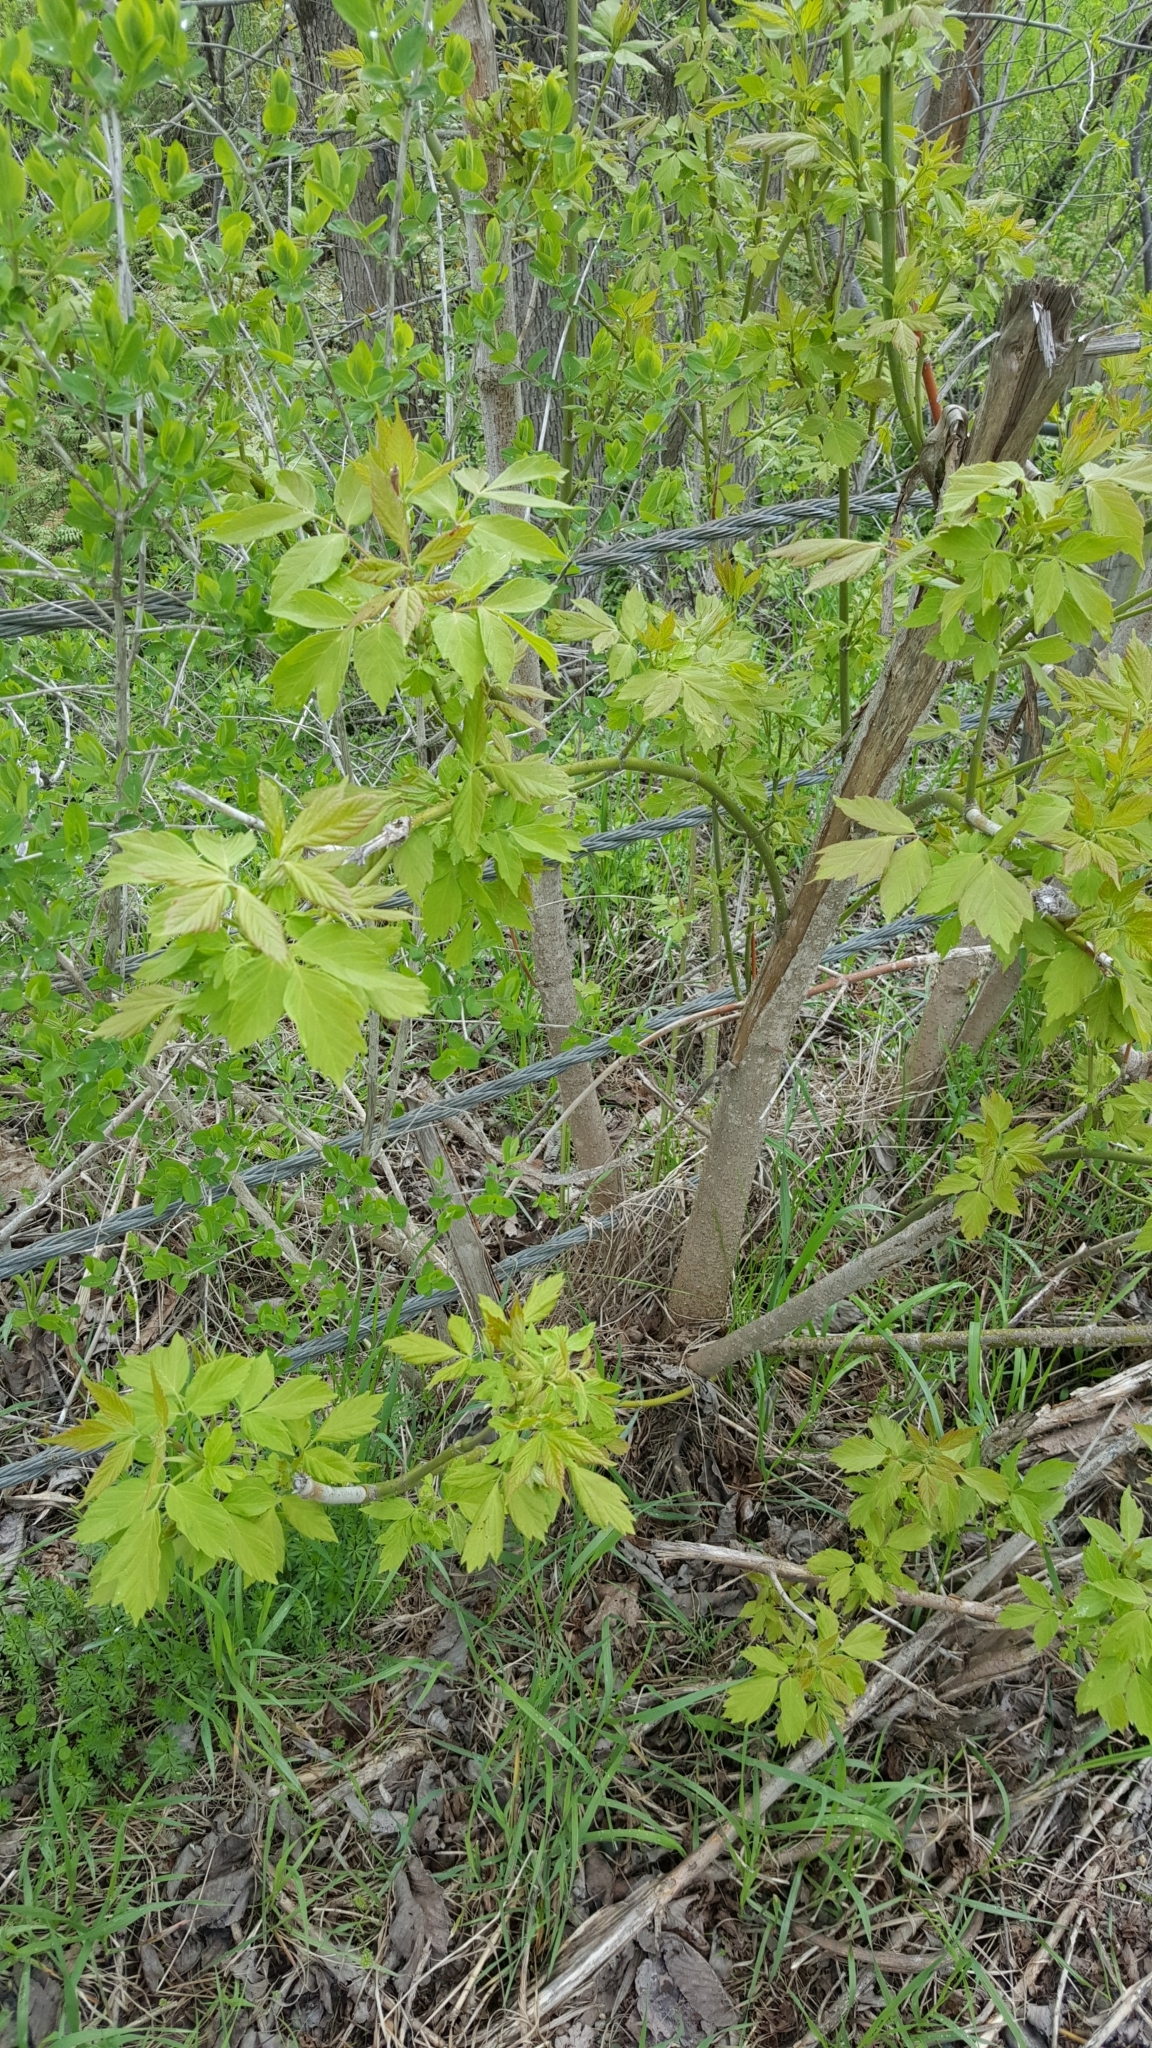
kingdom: Plantae
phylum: Tracheophyta
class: Magnoliopsida
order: Sapindales
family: Sapindaceae
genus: Acer
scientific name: Acer negundo
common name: Ashleaf maple
